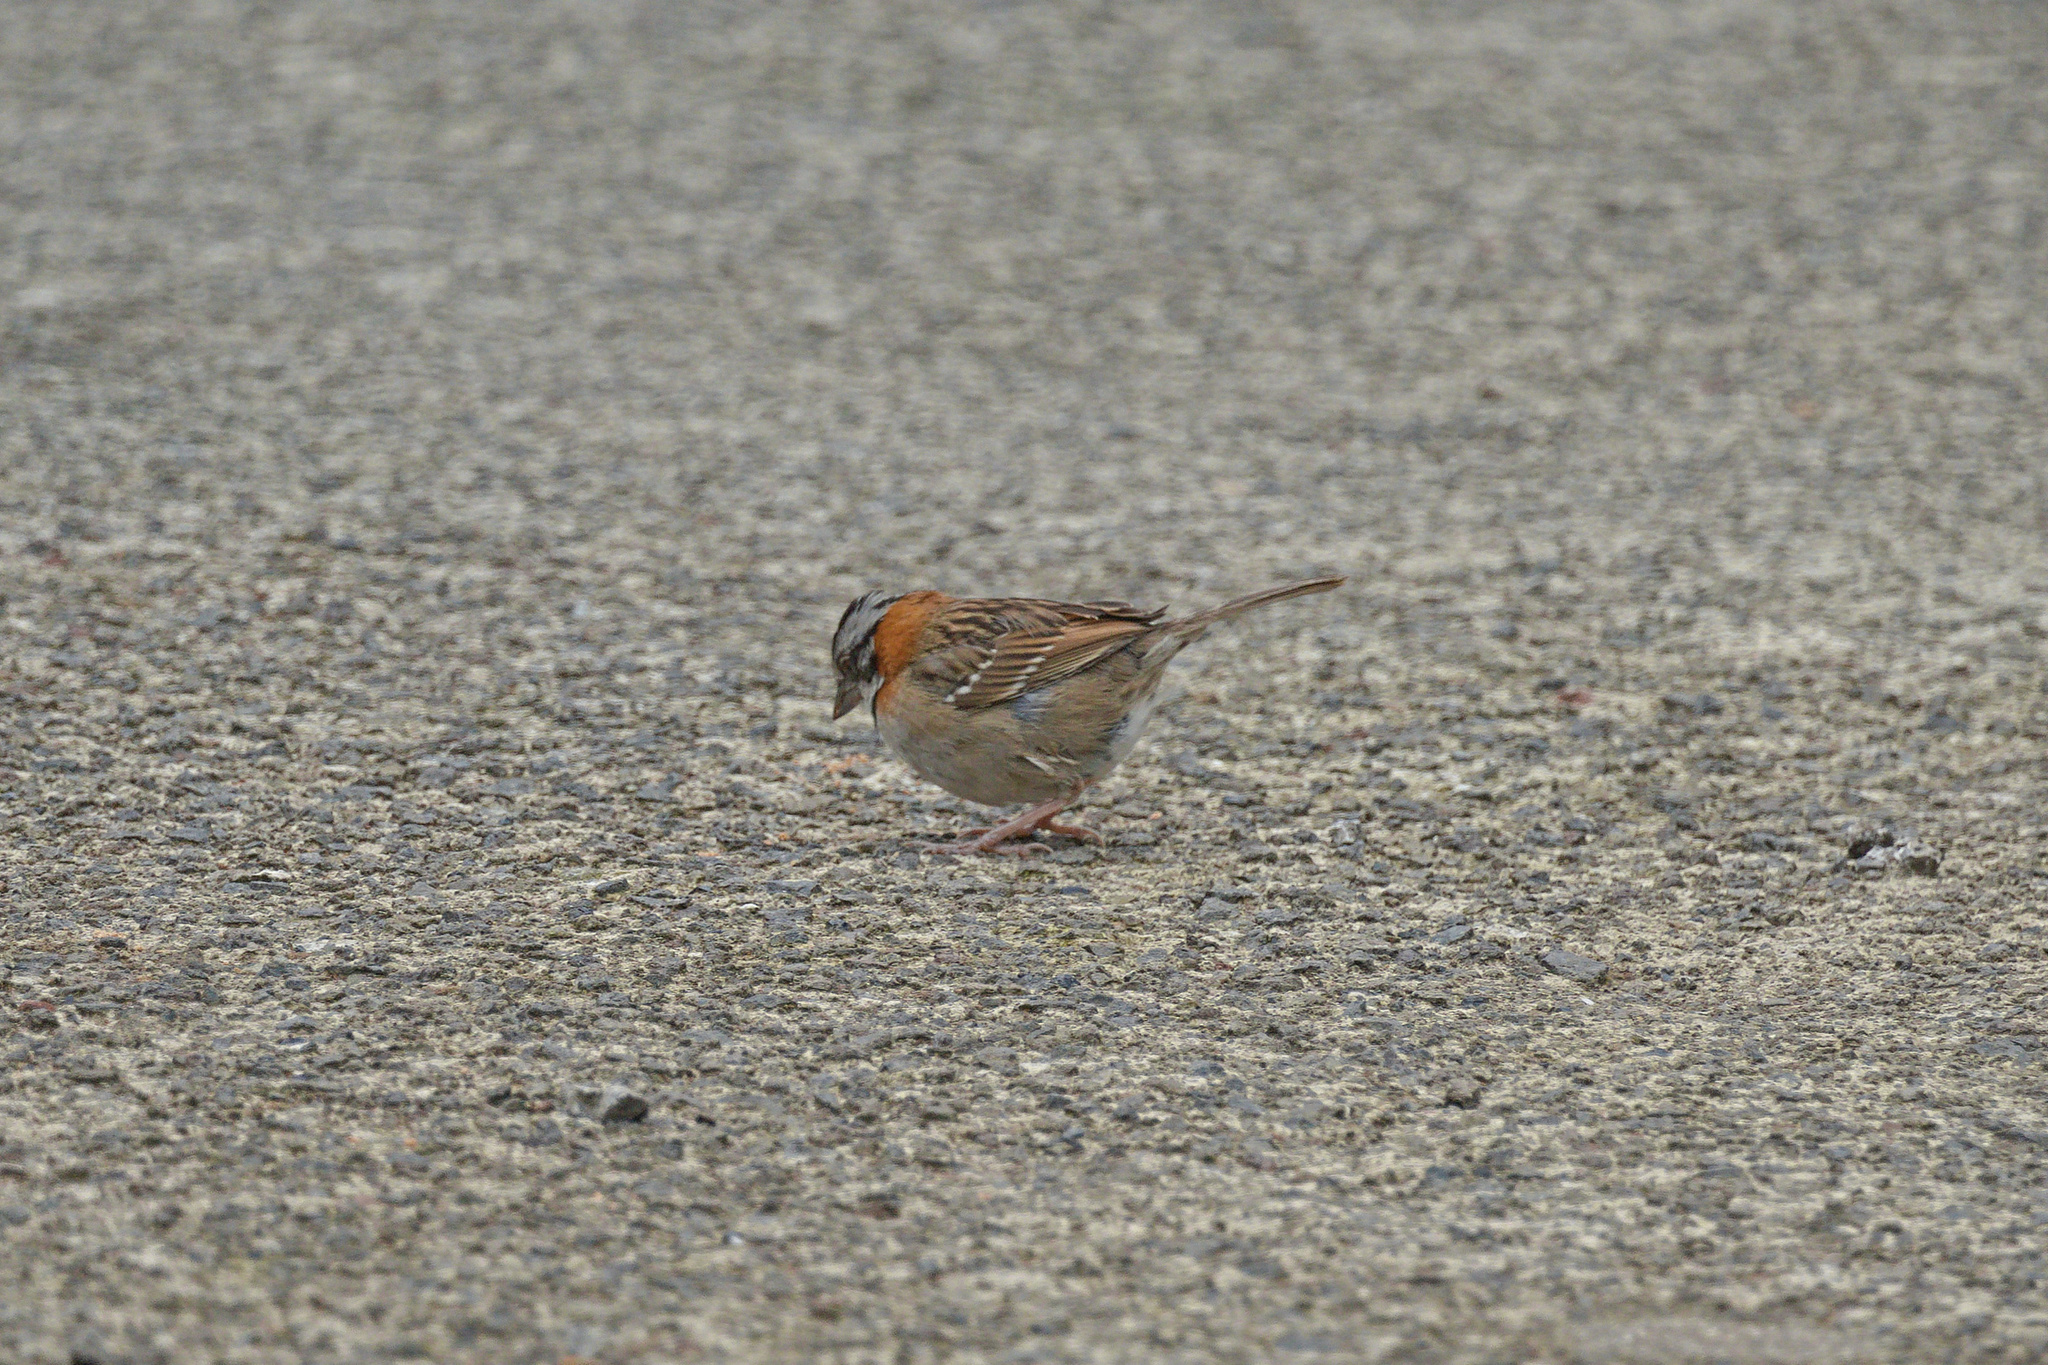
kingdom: Animalia
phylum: Chordata
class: Aves
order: Passeriformes
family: Passerellidae
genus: Zonotrichia
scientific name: Zonotrichia capensis
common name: Rufous-collared sparrow
